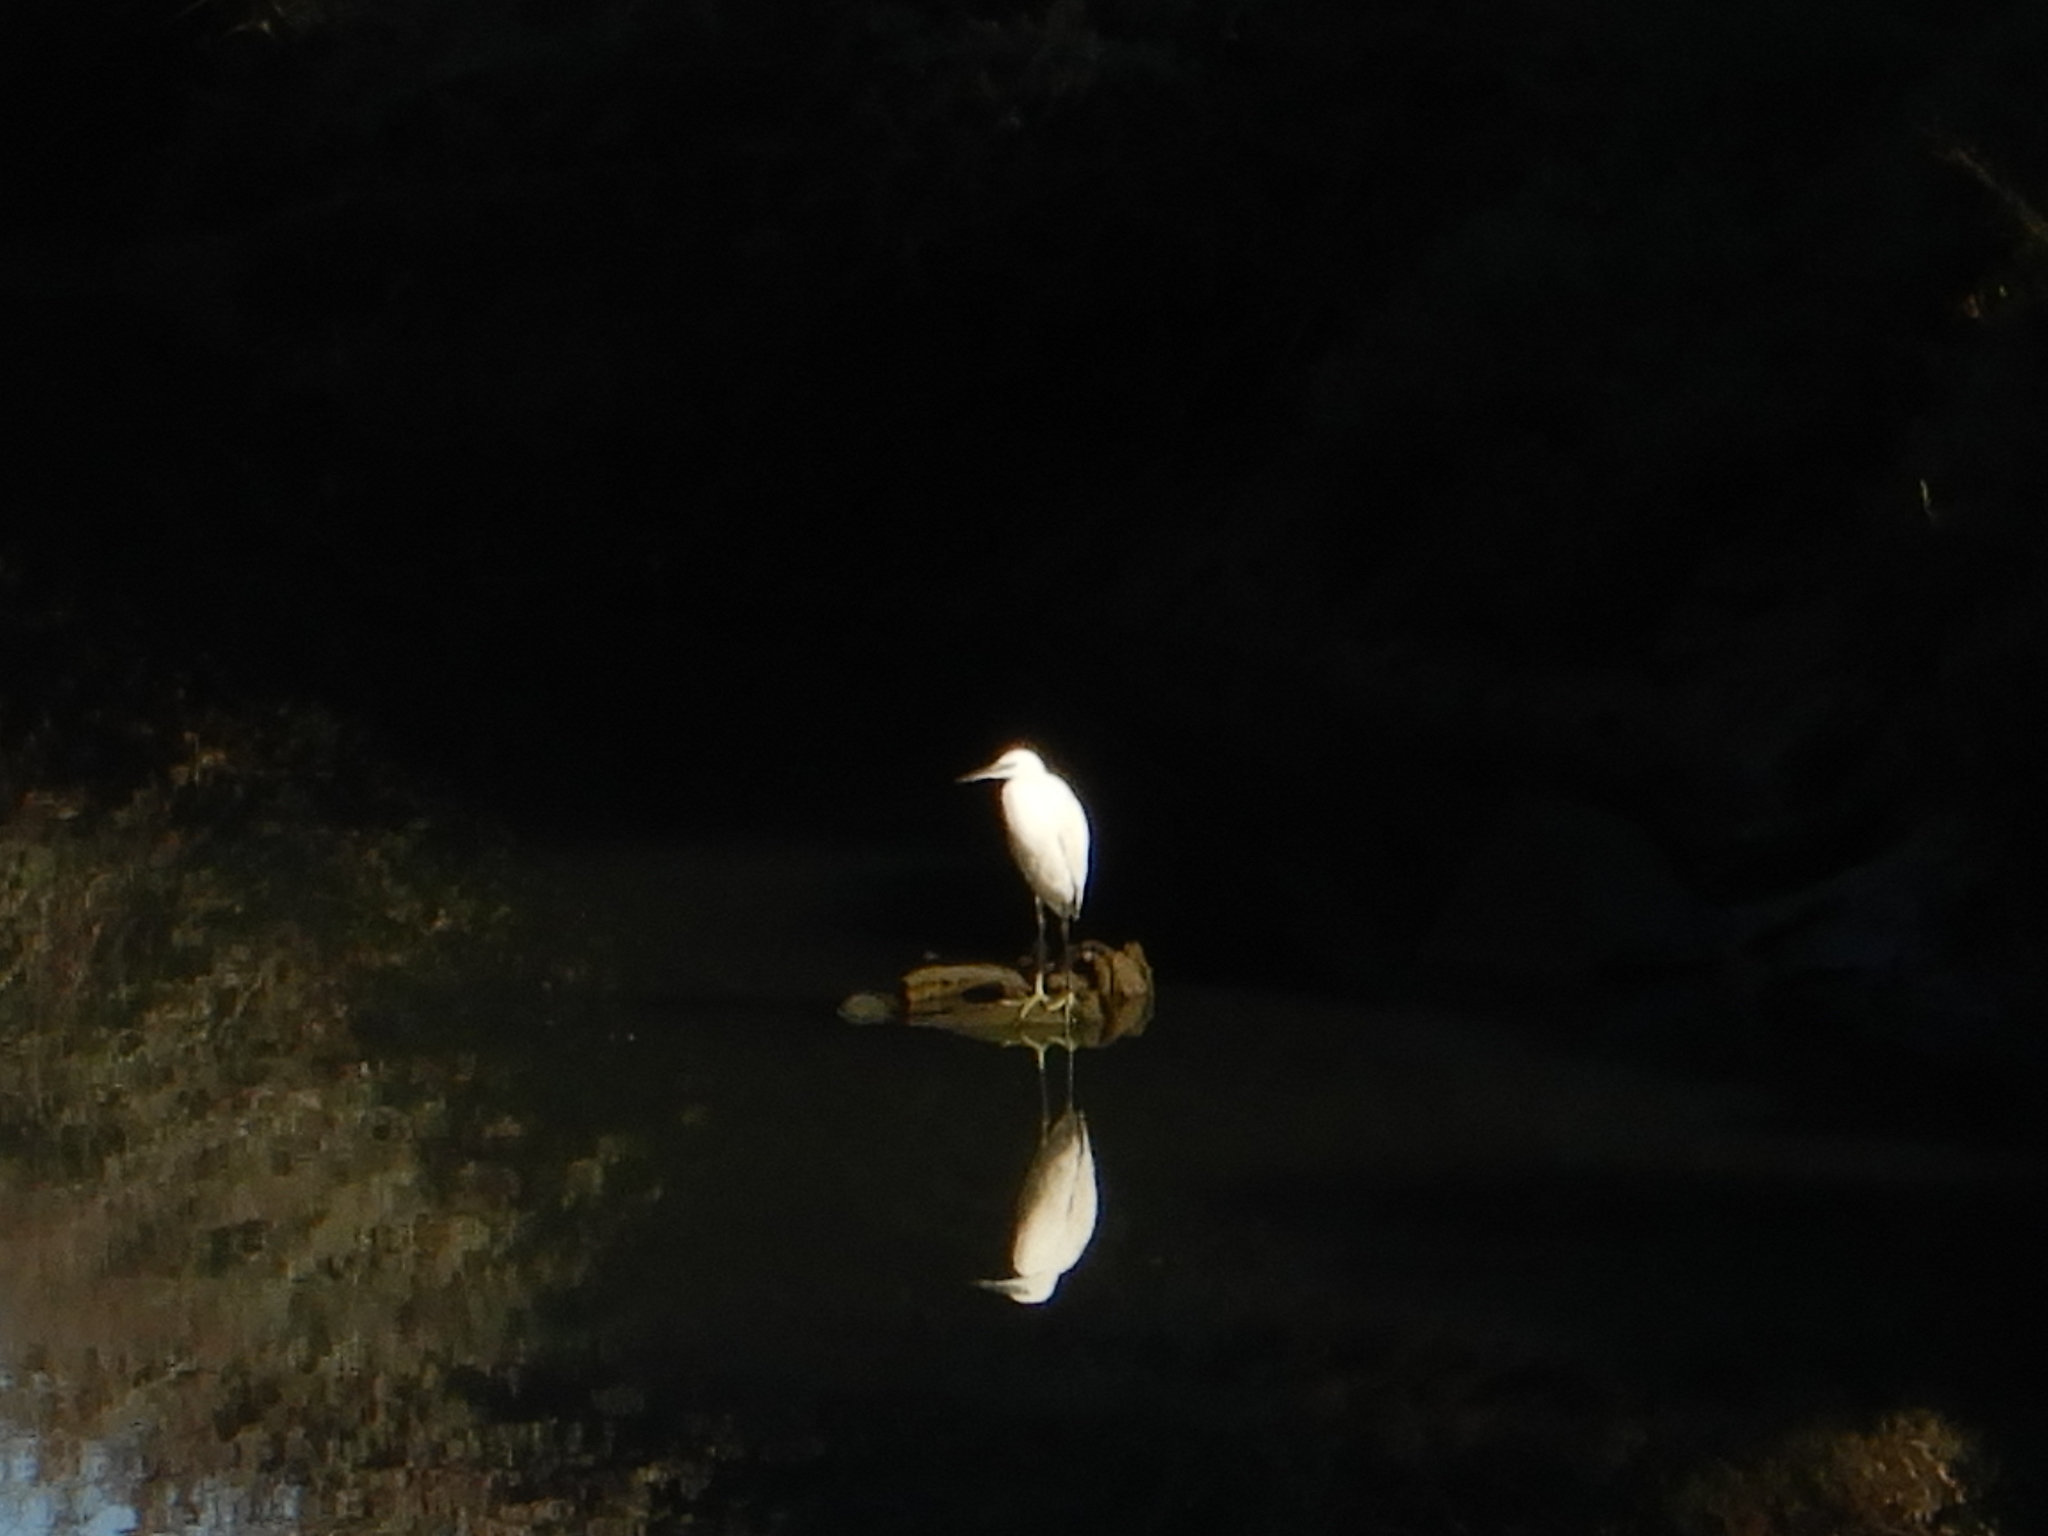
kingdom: Animalia
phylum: Chordata
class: Aves
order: Pelecaniformes
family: Ardeidae
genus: Egretta
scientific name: Egretta garzetta
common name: Little egret
